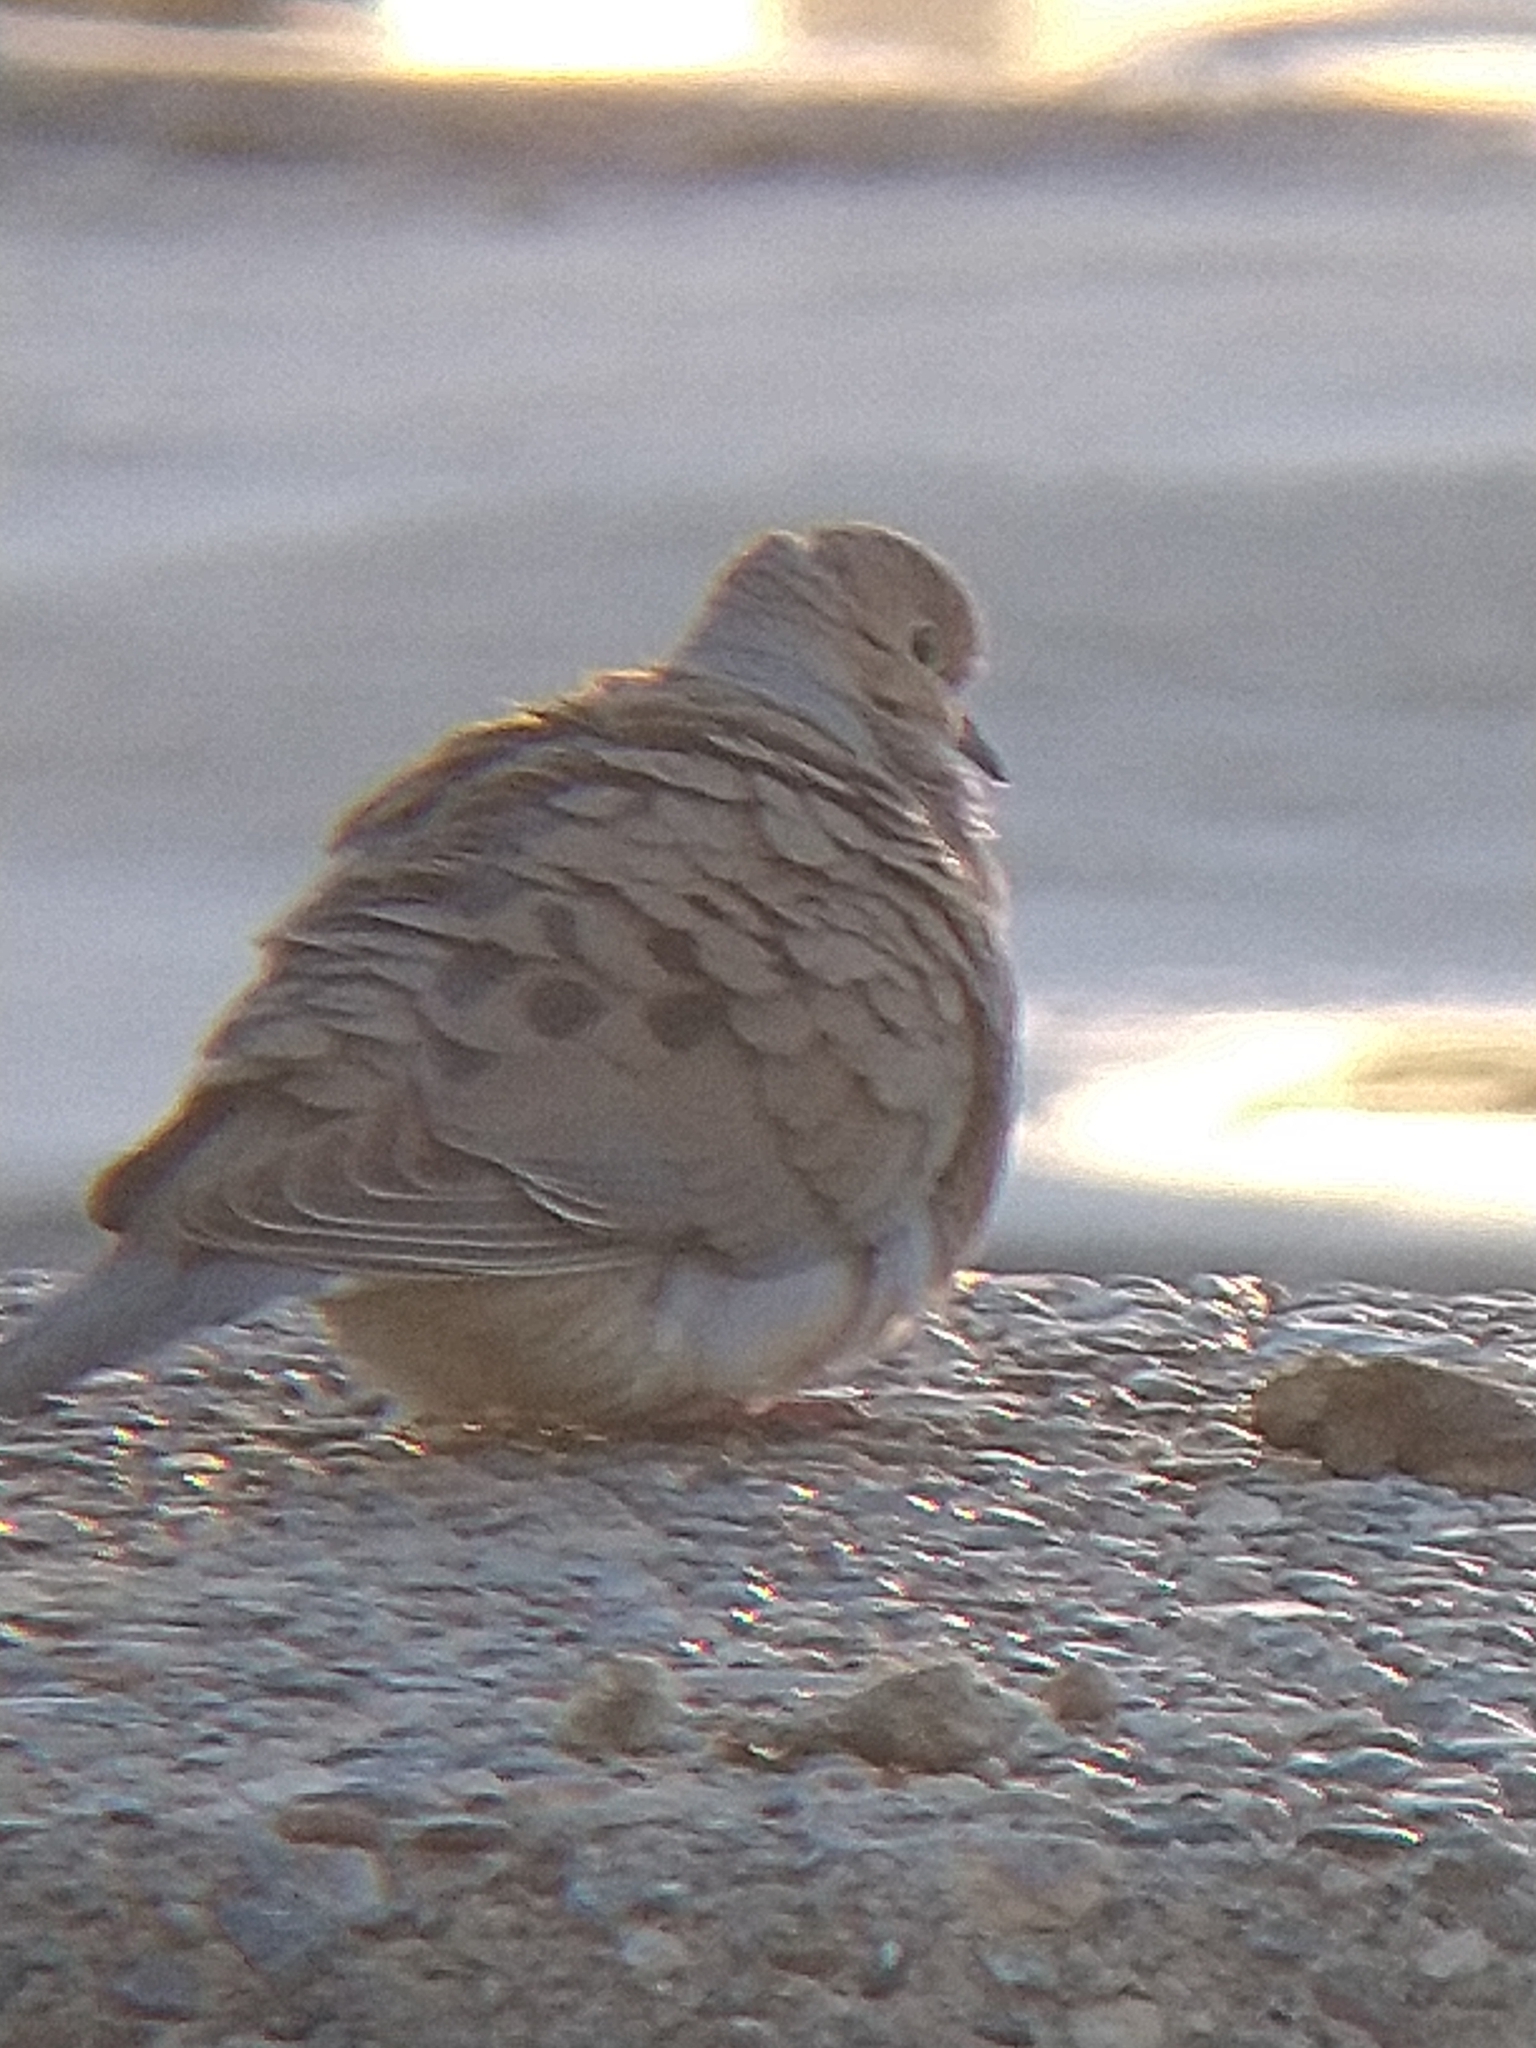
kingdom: Animalia
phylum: Chordata
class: Aves
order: Columbiformes
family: Columbidae
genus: Zenaida
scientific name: Zenaida macroura
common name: Mourning dove
